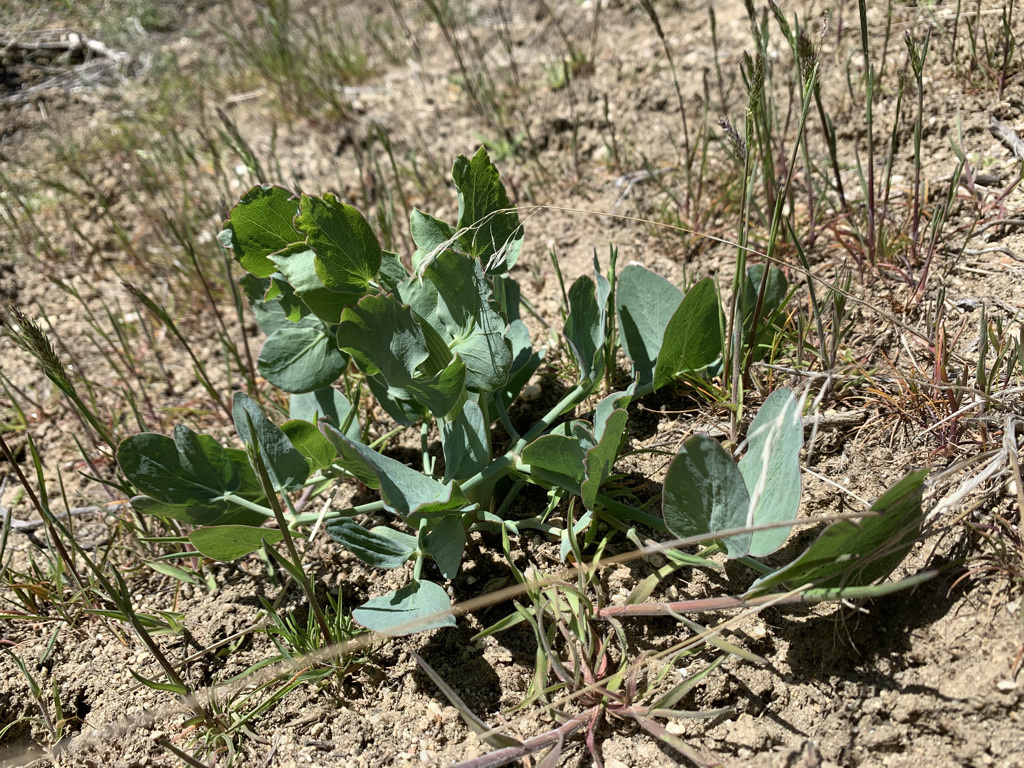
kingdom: Plantae
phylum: Tracheophyta
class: Magnoliopsida
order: Apiales
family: Apiaceae
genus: Lomatium
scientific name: Lomatium nudicaule
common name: Pestle lomatium
